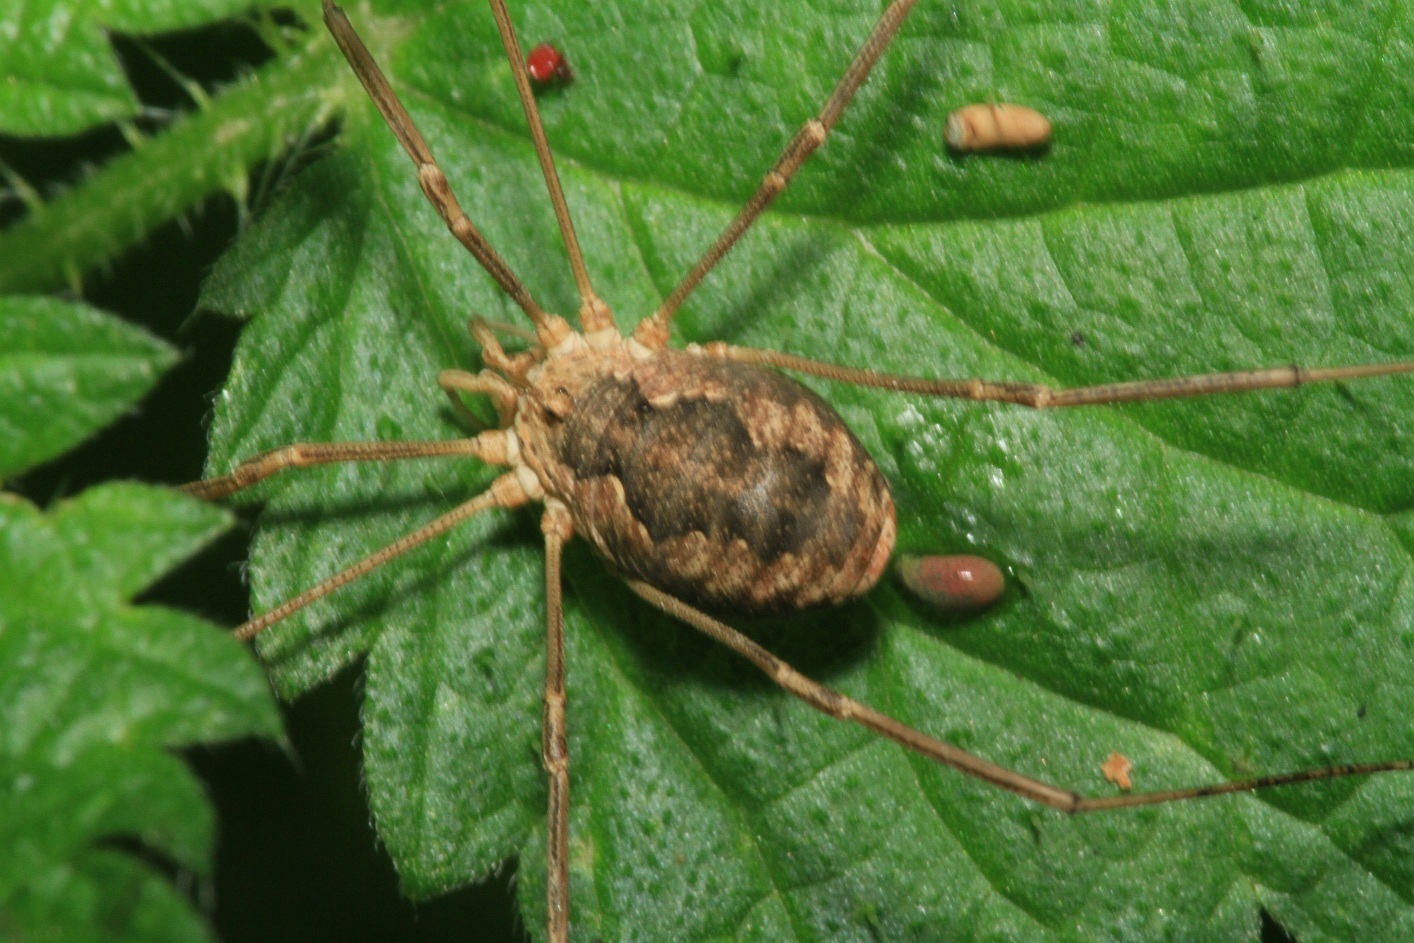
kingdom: Animalia
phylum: Arthropoda
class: Arachnida
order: Opiliones
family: Phalangiidae
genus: Phalangium
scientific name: Phalangium opilio
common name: Daddy longleg
